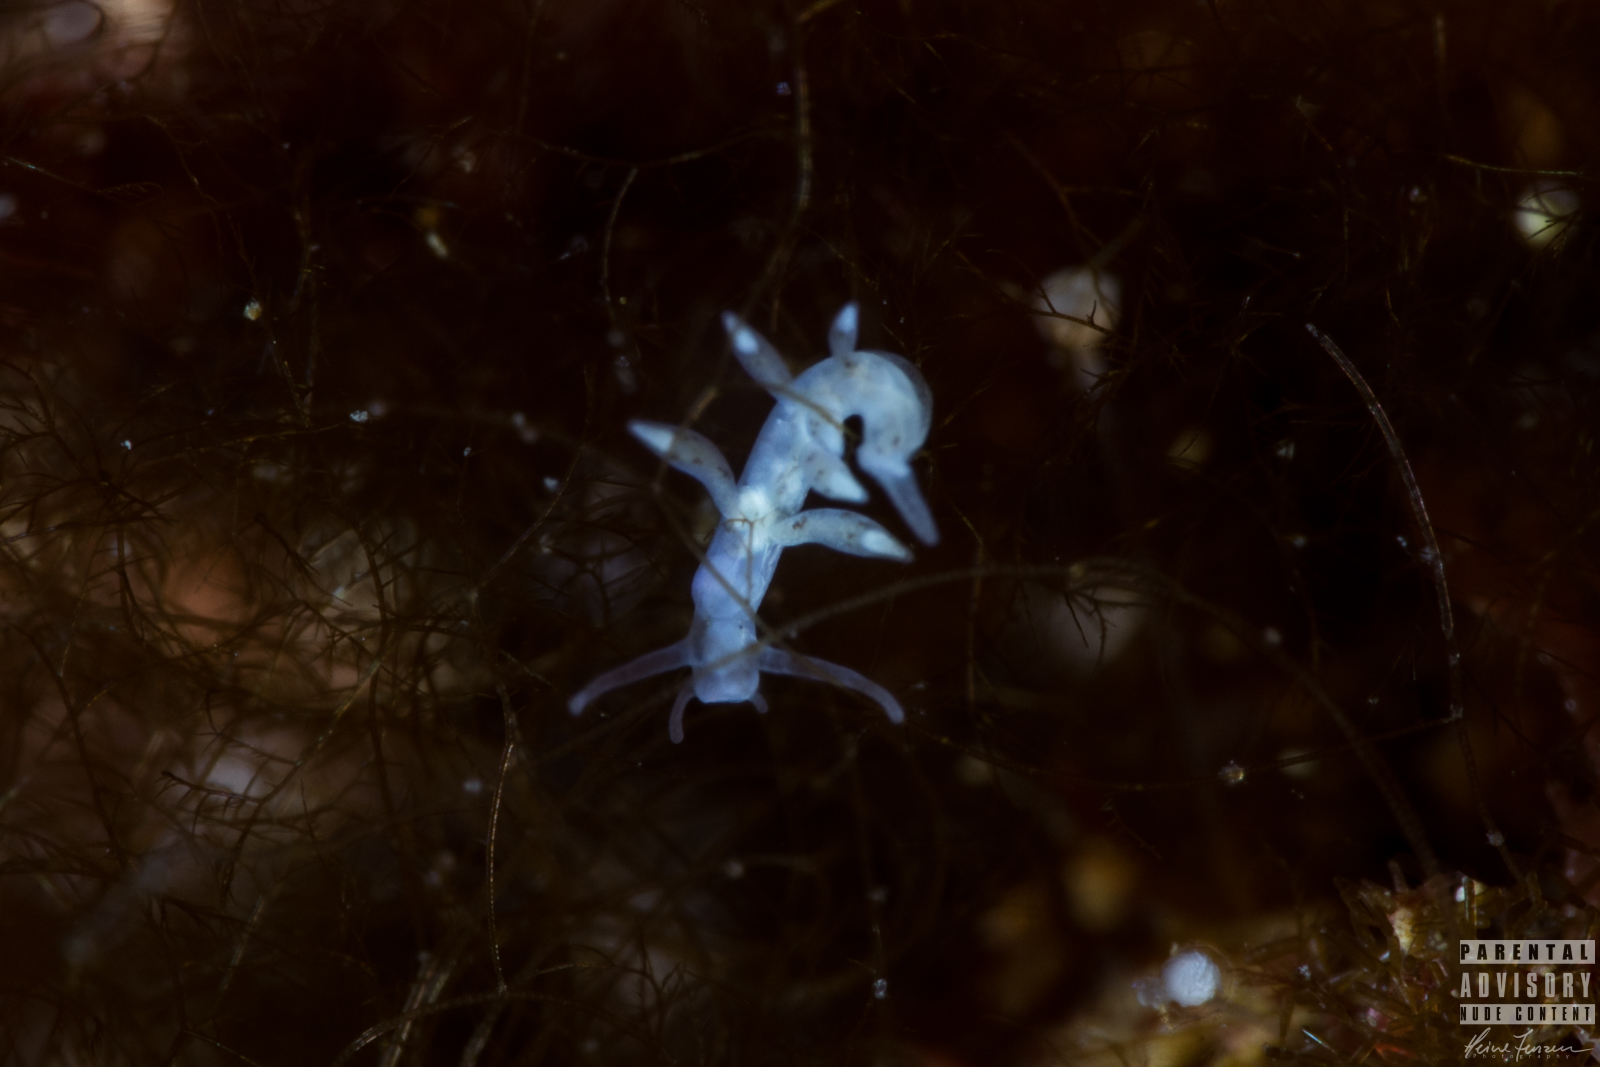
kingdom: Animalia
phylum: Mollusca
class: Gastropoda
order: Nudibranchia
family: Tergipedidae
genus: Tergipes
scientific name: Tergipes tergipes
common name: Johnston's balloon eolis
